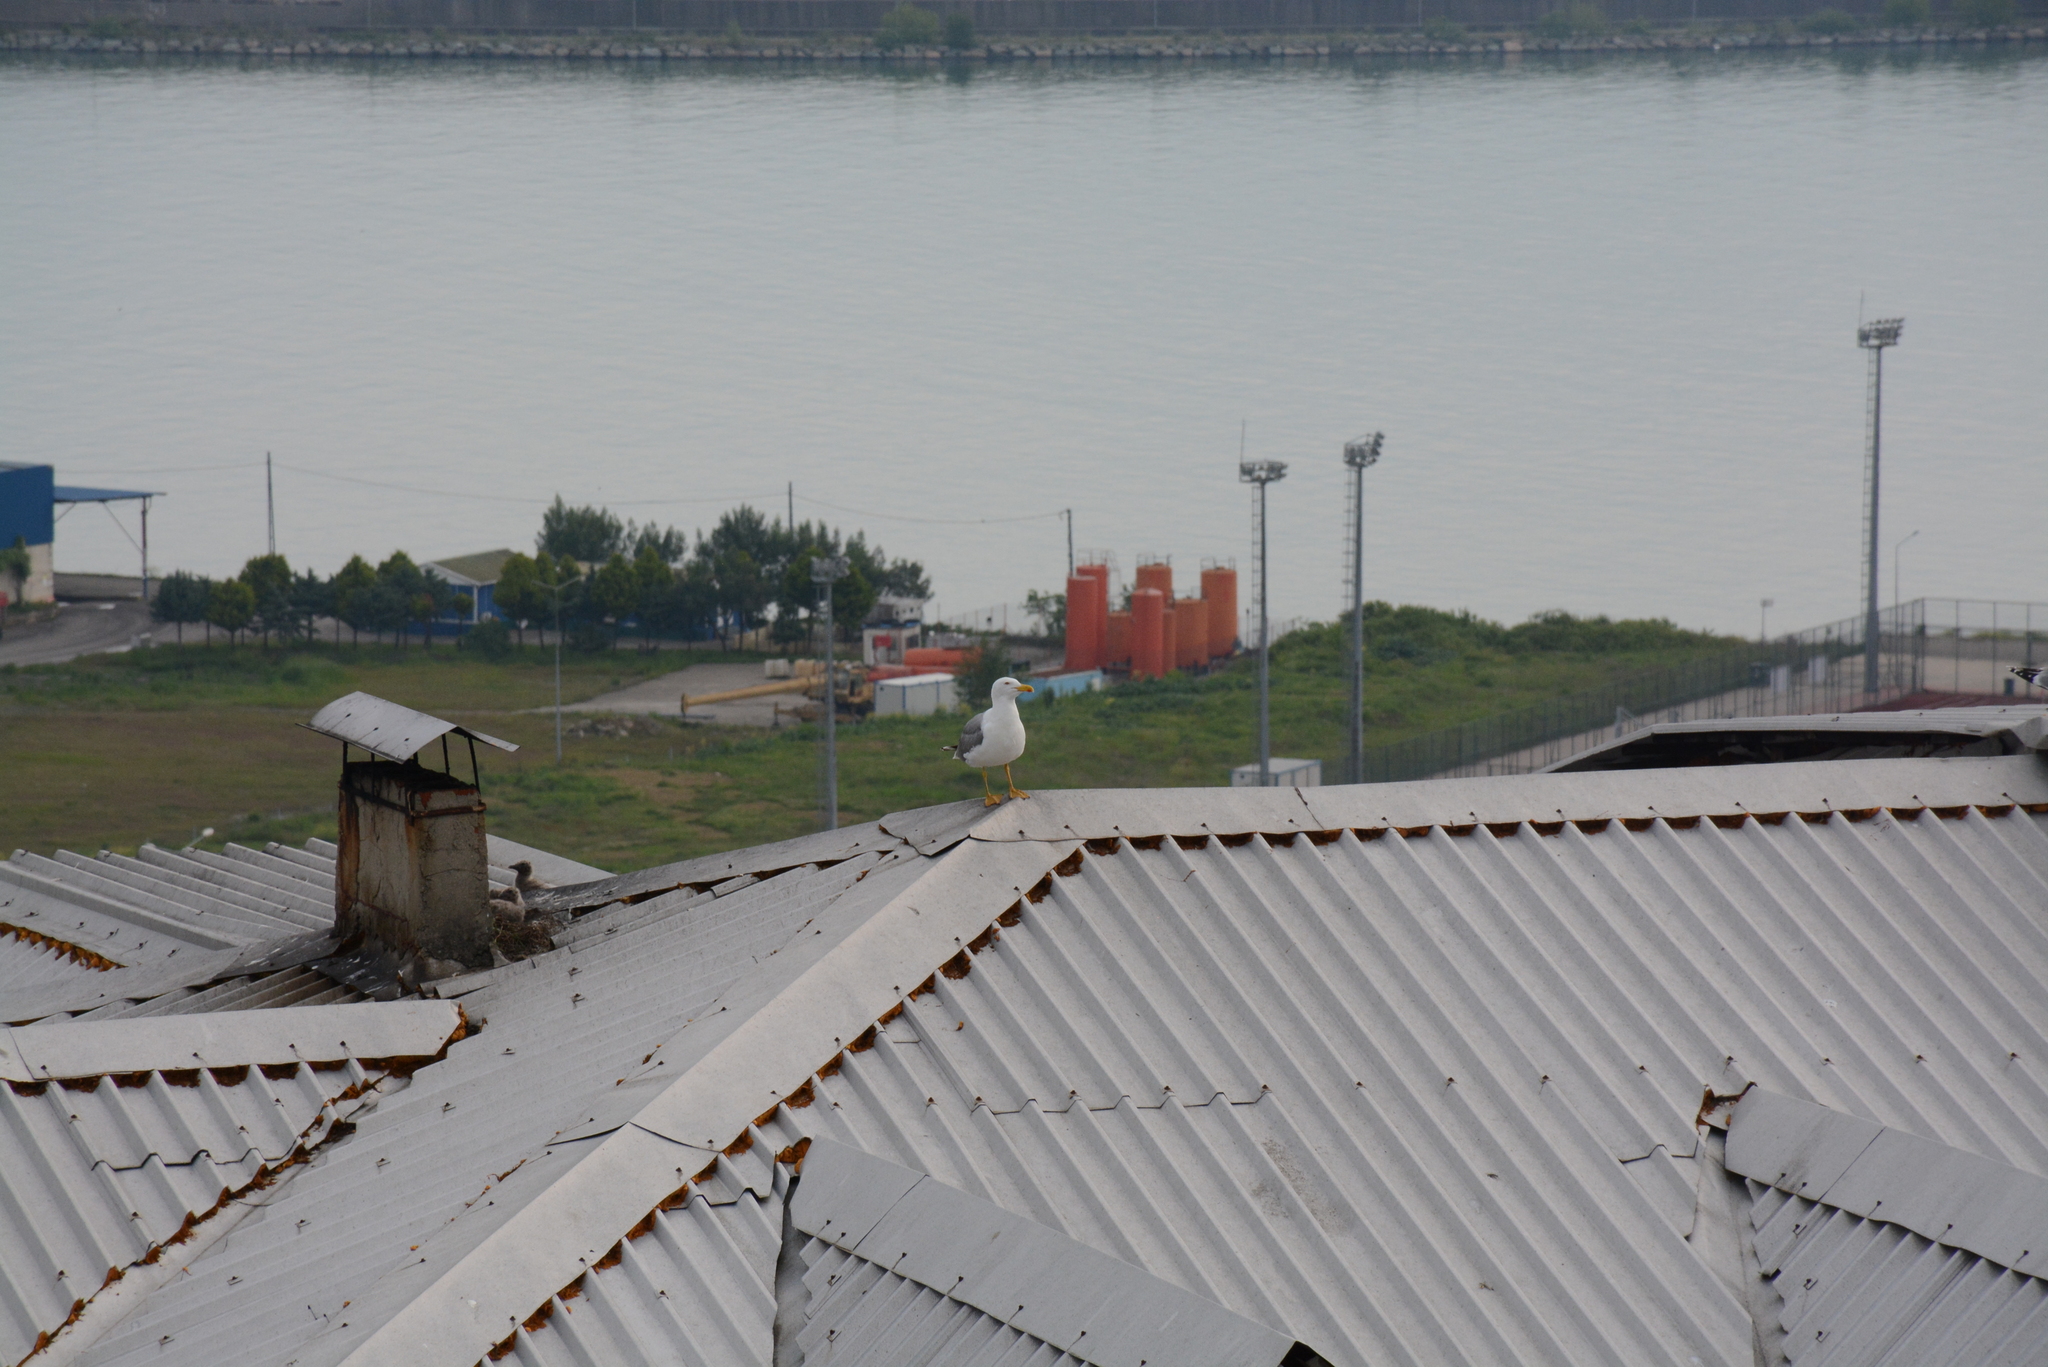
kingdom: Animalia
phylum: Chordata
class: Aves
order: Charadriiformes
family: Laridae
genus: Larus
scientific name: Larus michahellis
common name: Yellow-legged gull
